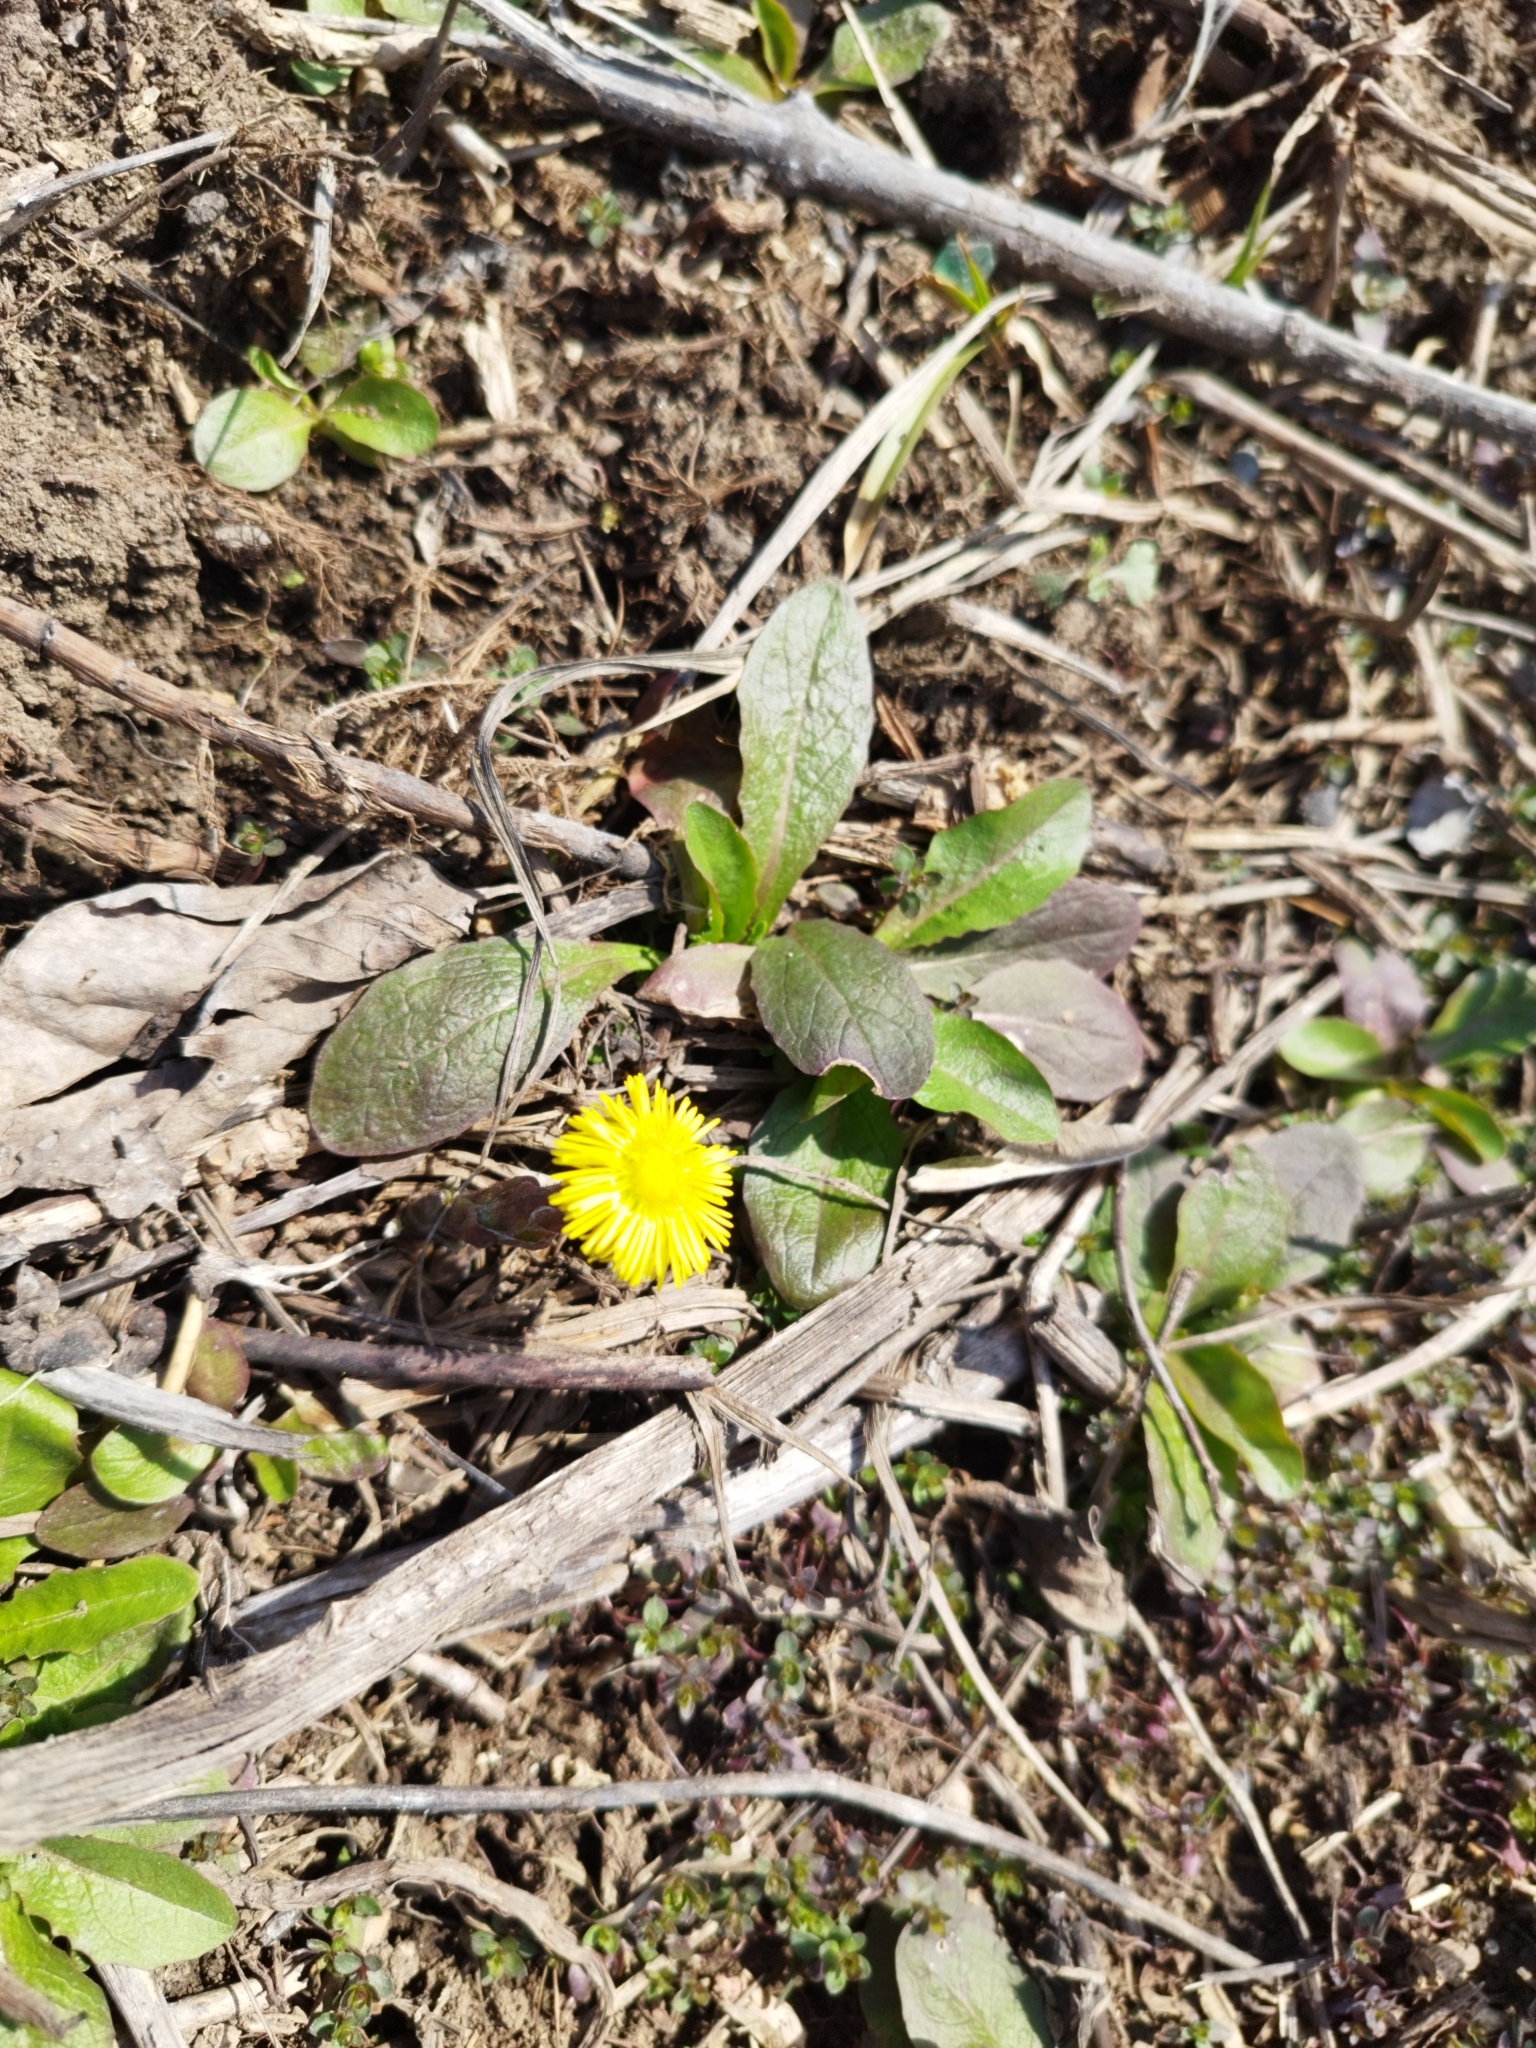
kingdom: Plantae
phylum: Tracheophyta
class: Magnoliopsida
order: Asterales
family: Asteraceae
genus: Tussilago
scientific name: Tussilago farfara
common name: Coltsfoot
